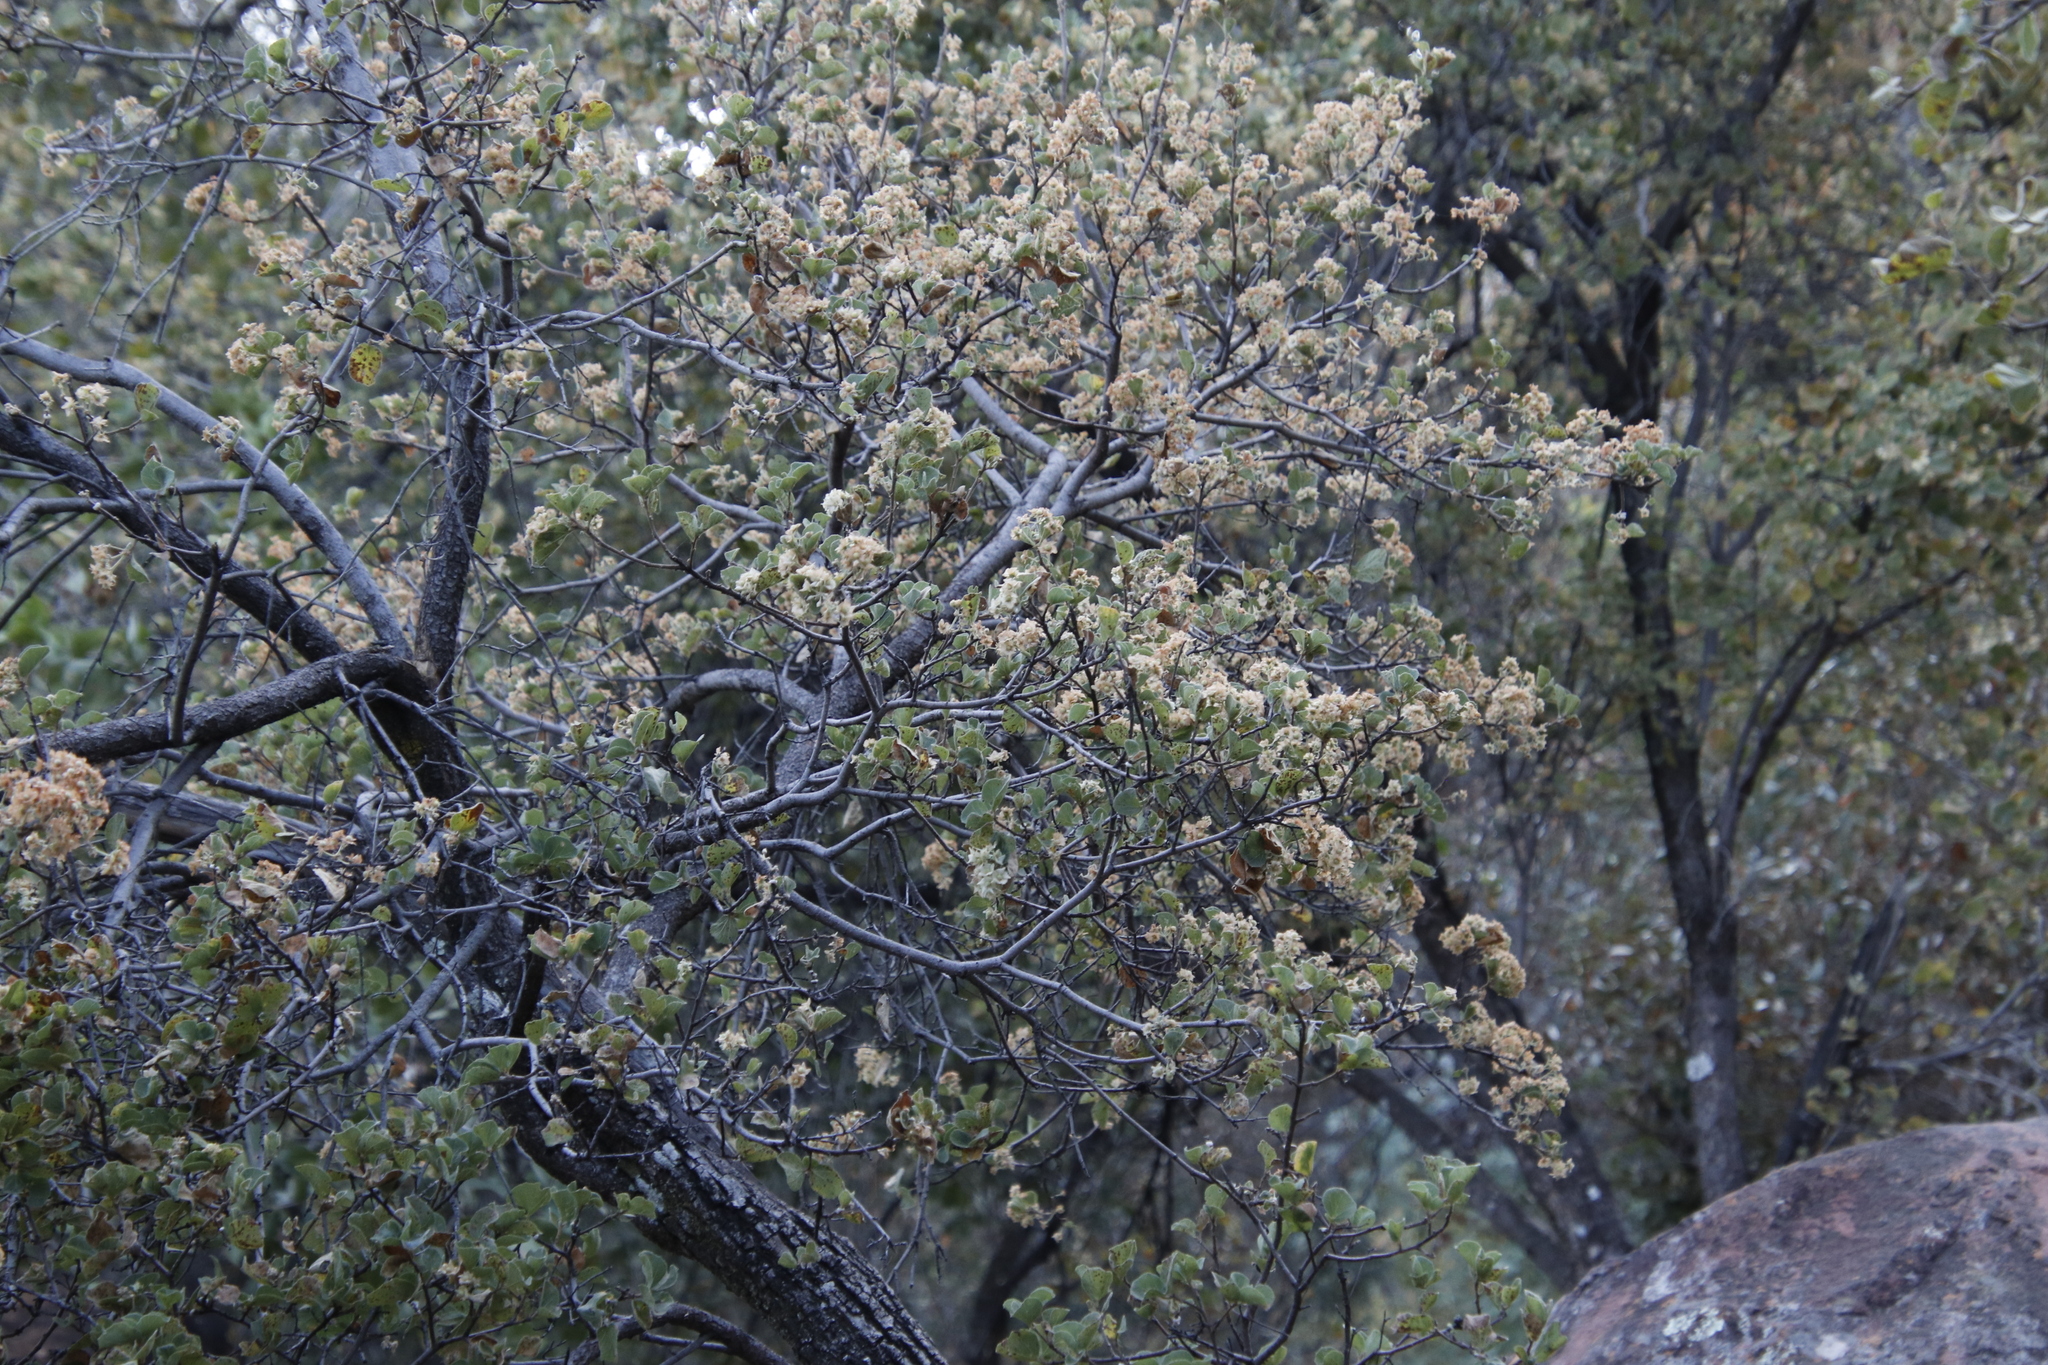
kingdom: Plantae
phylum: Tracheophyta
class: Magnoliopsida
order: Malvales
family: Malvaceae
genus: Dombeya
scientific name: Dombeya rotundifolia
